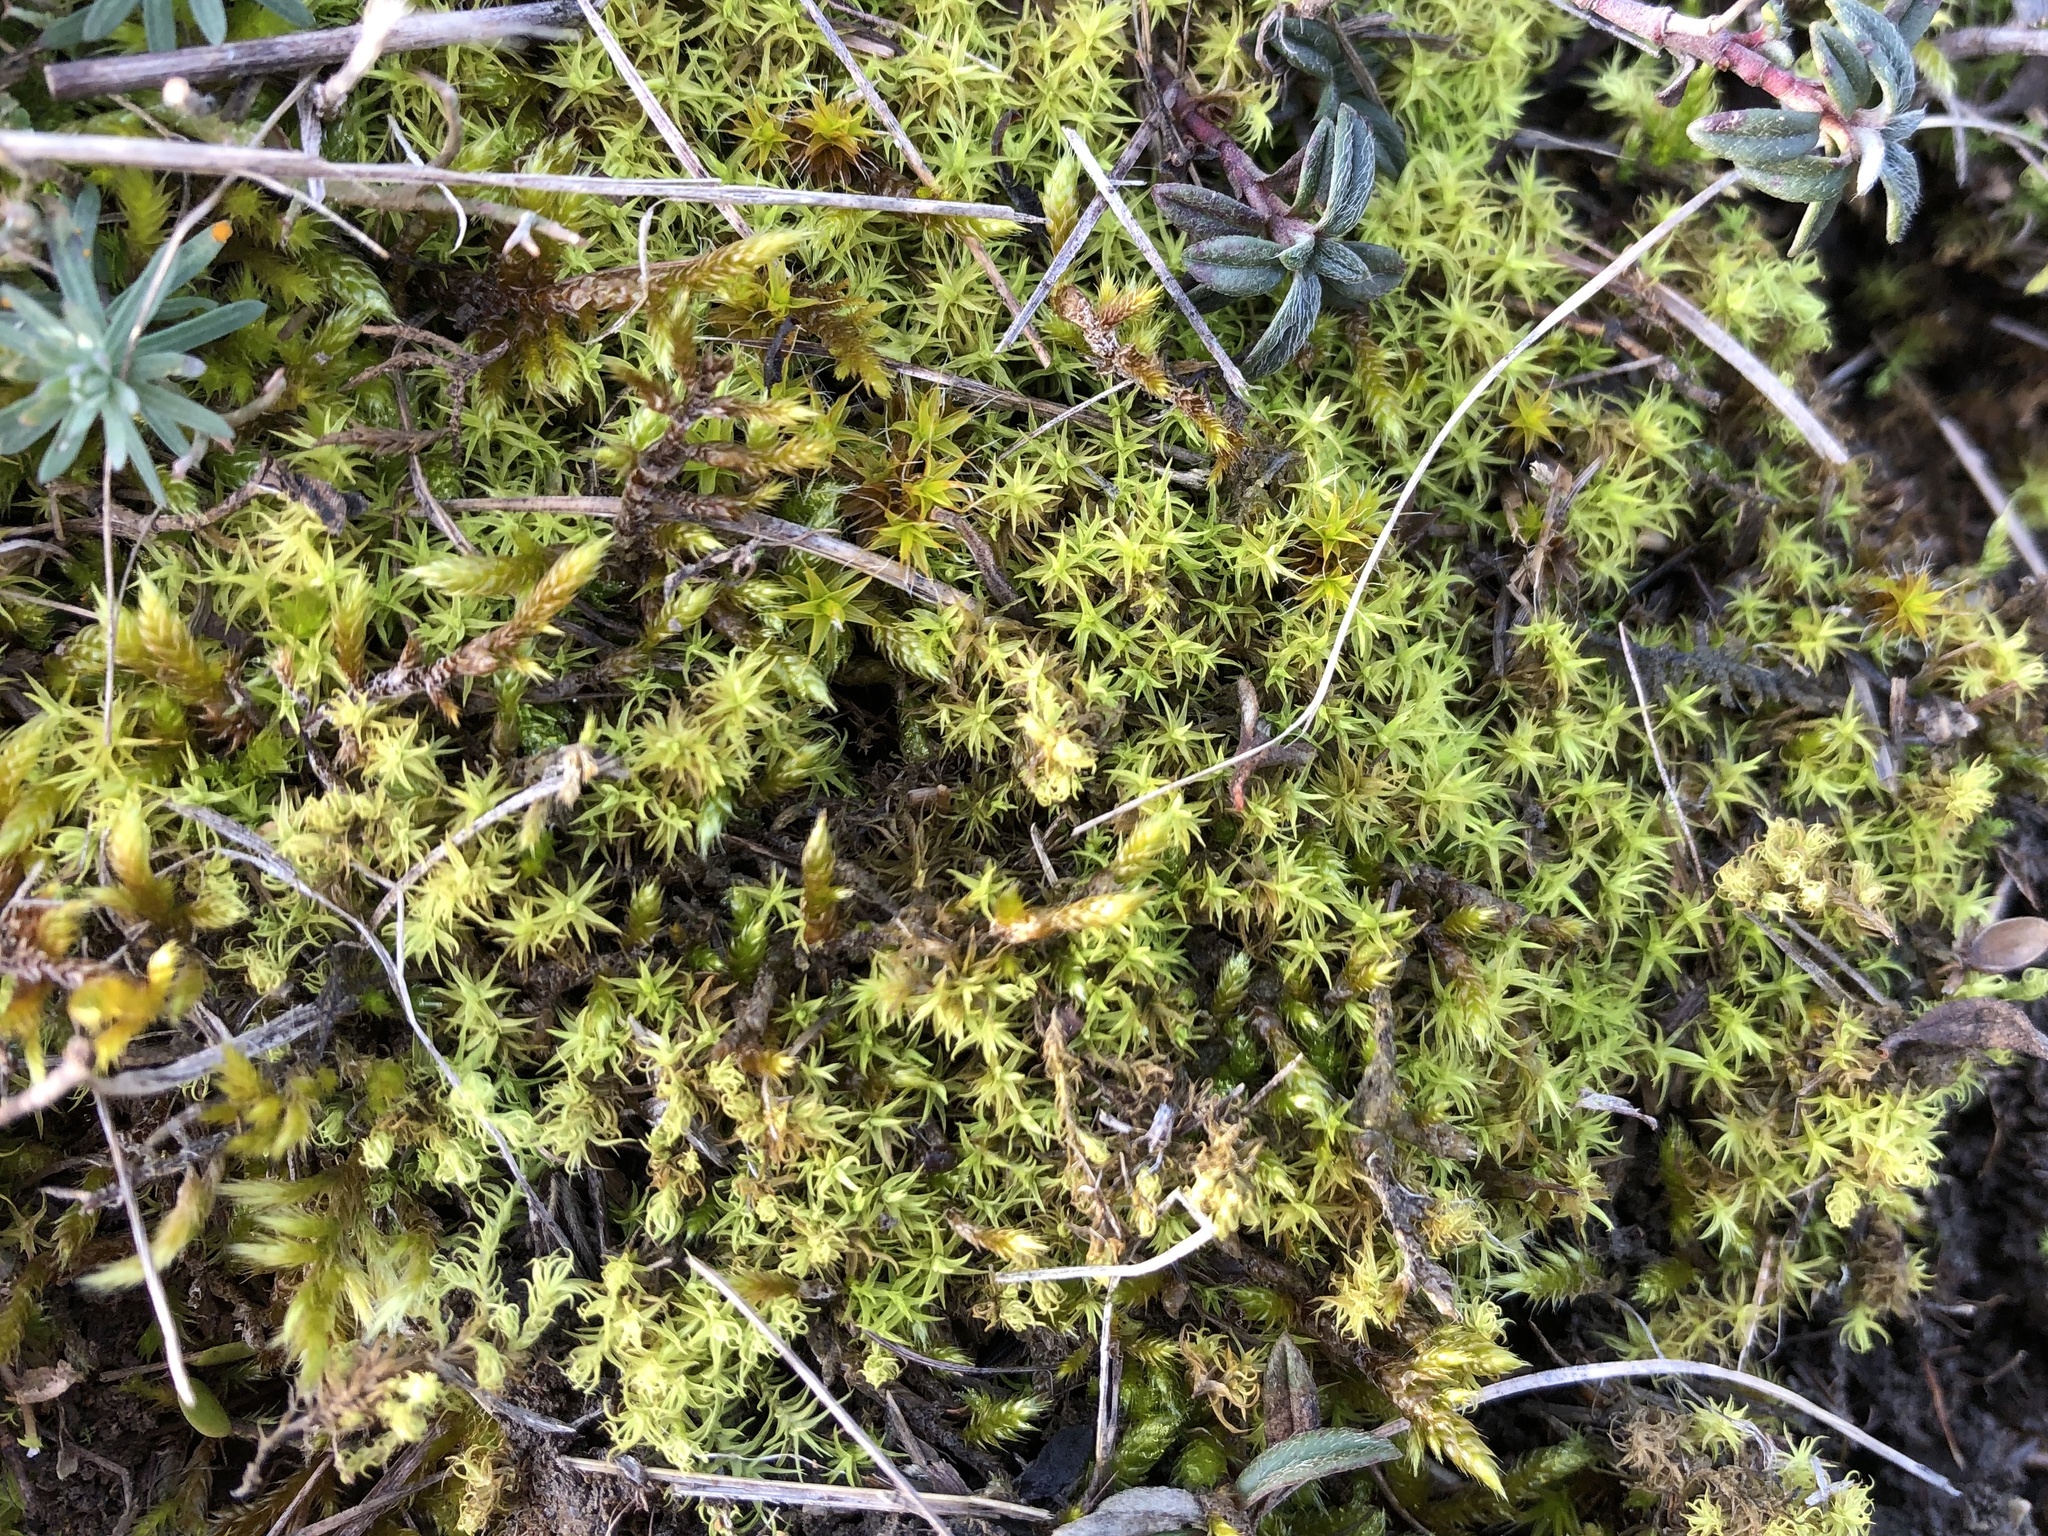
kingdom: Plantae
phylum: Bryophyta
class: Bryopsida
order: Pottiales
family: Pottiaceae
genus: Syntrichia
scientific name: Syntrichia ruralis
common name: Sidewalk screw moss
